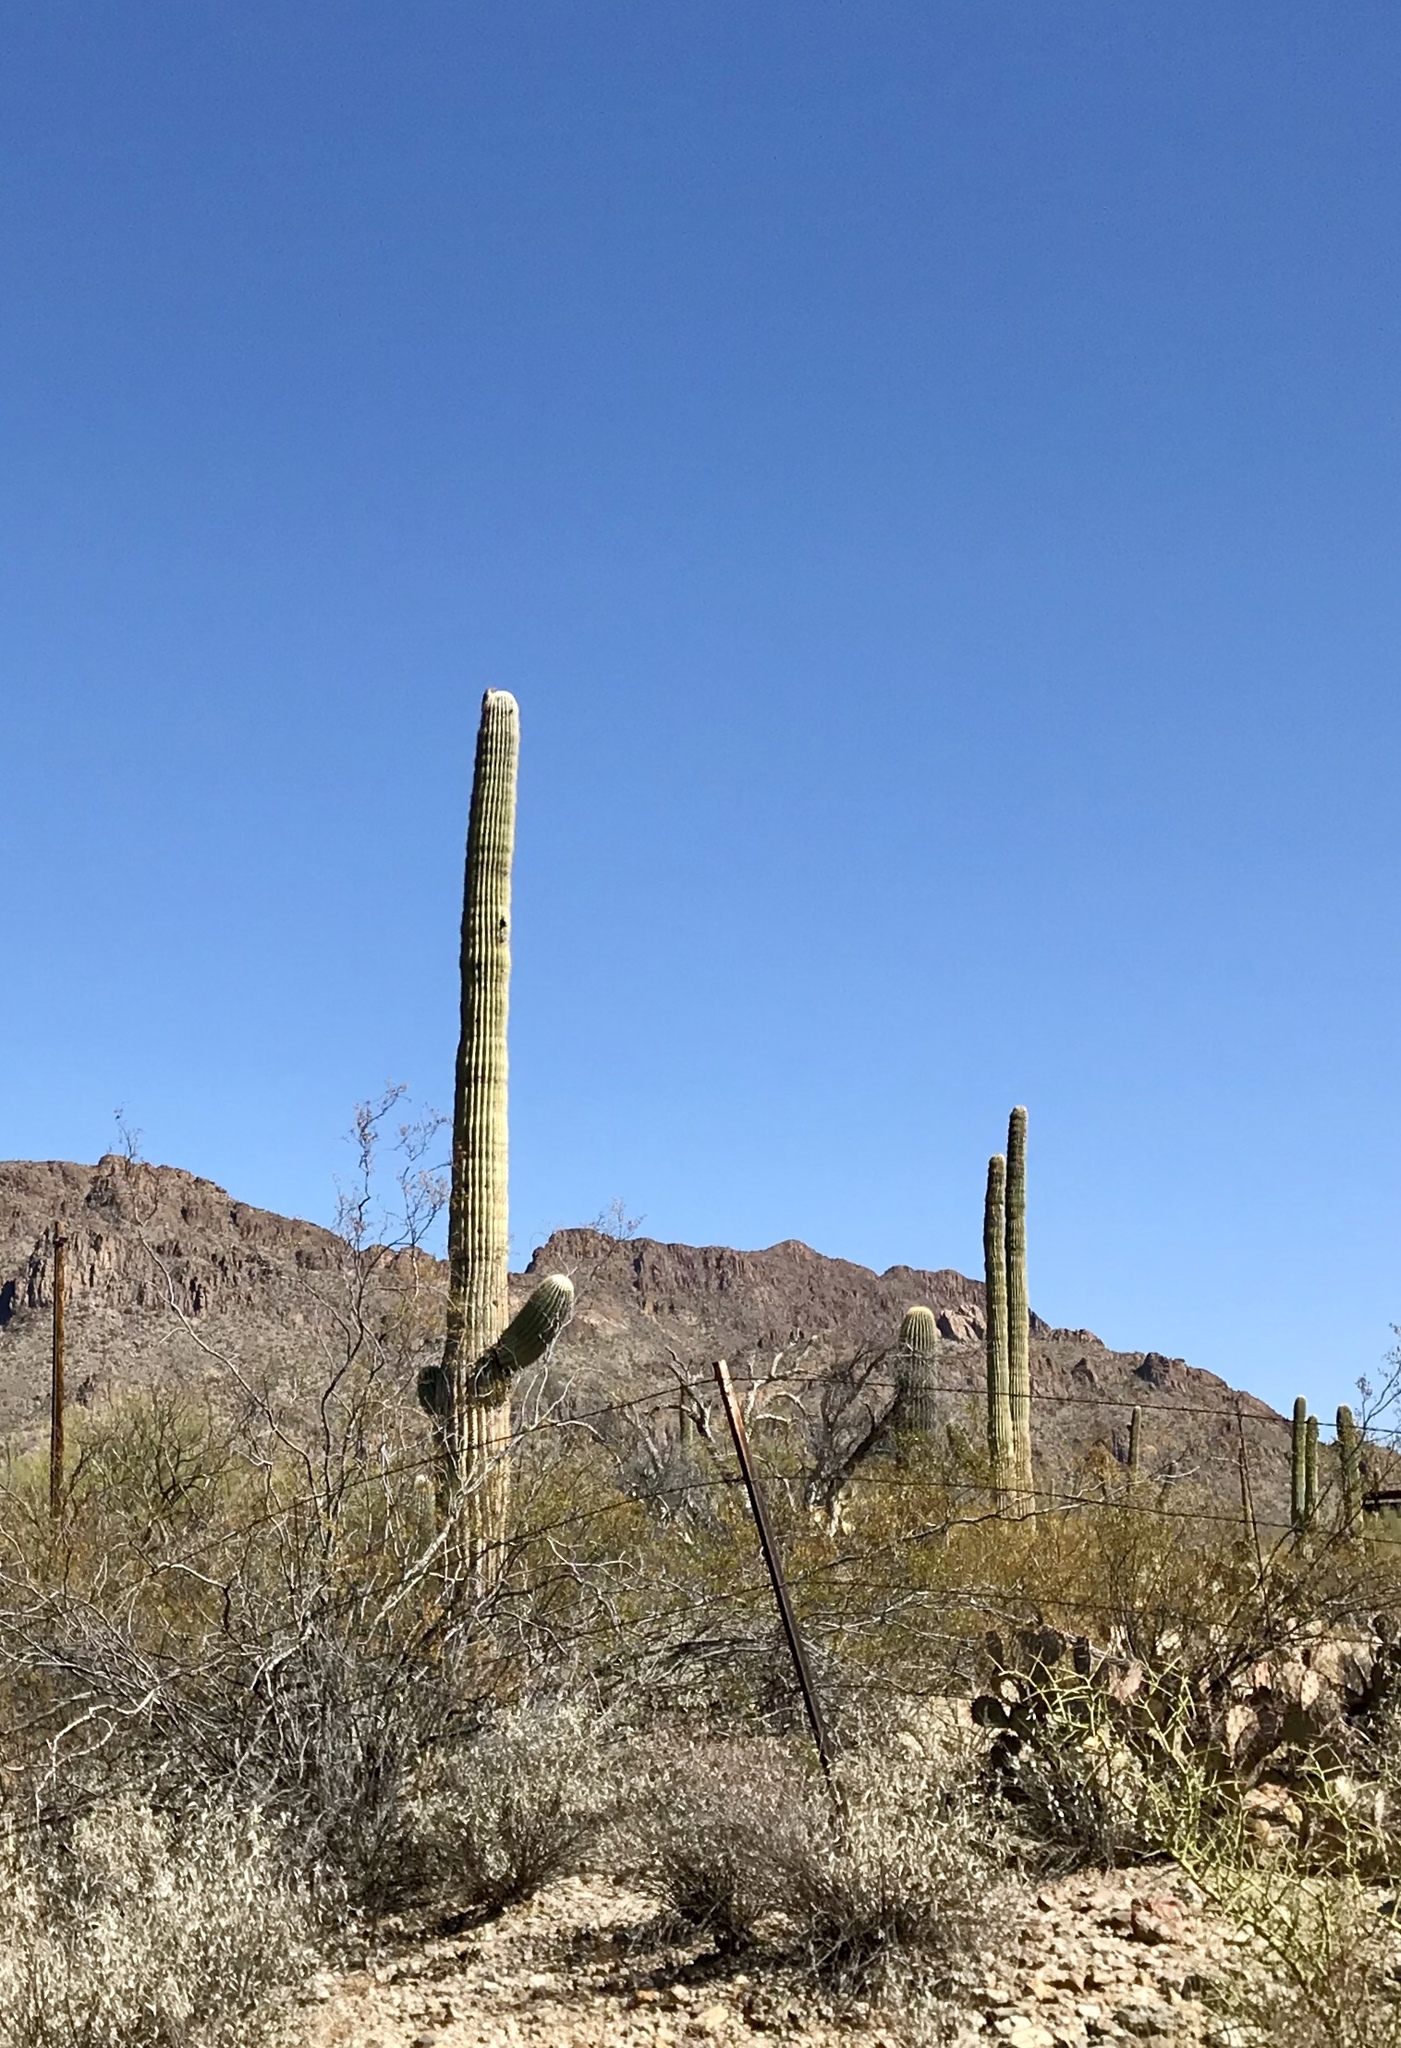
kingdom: Plantae
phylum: Tracheophyta
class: Magnoliopsida
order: Caryophyllales
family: Cactaceae
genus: Carnegiea
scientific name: Carnegiea gigantea
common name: Saguaro
